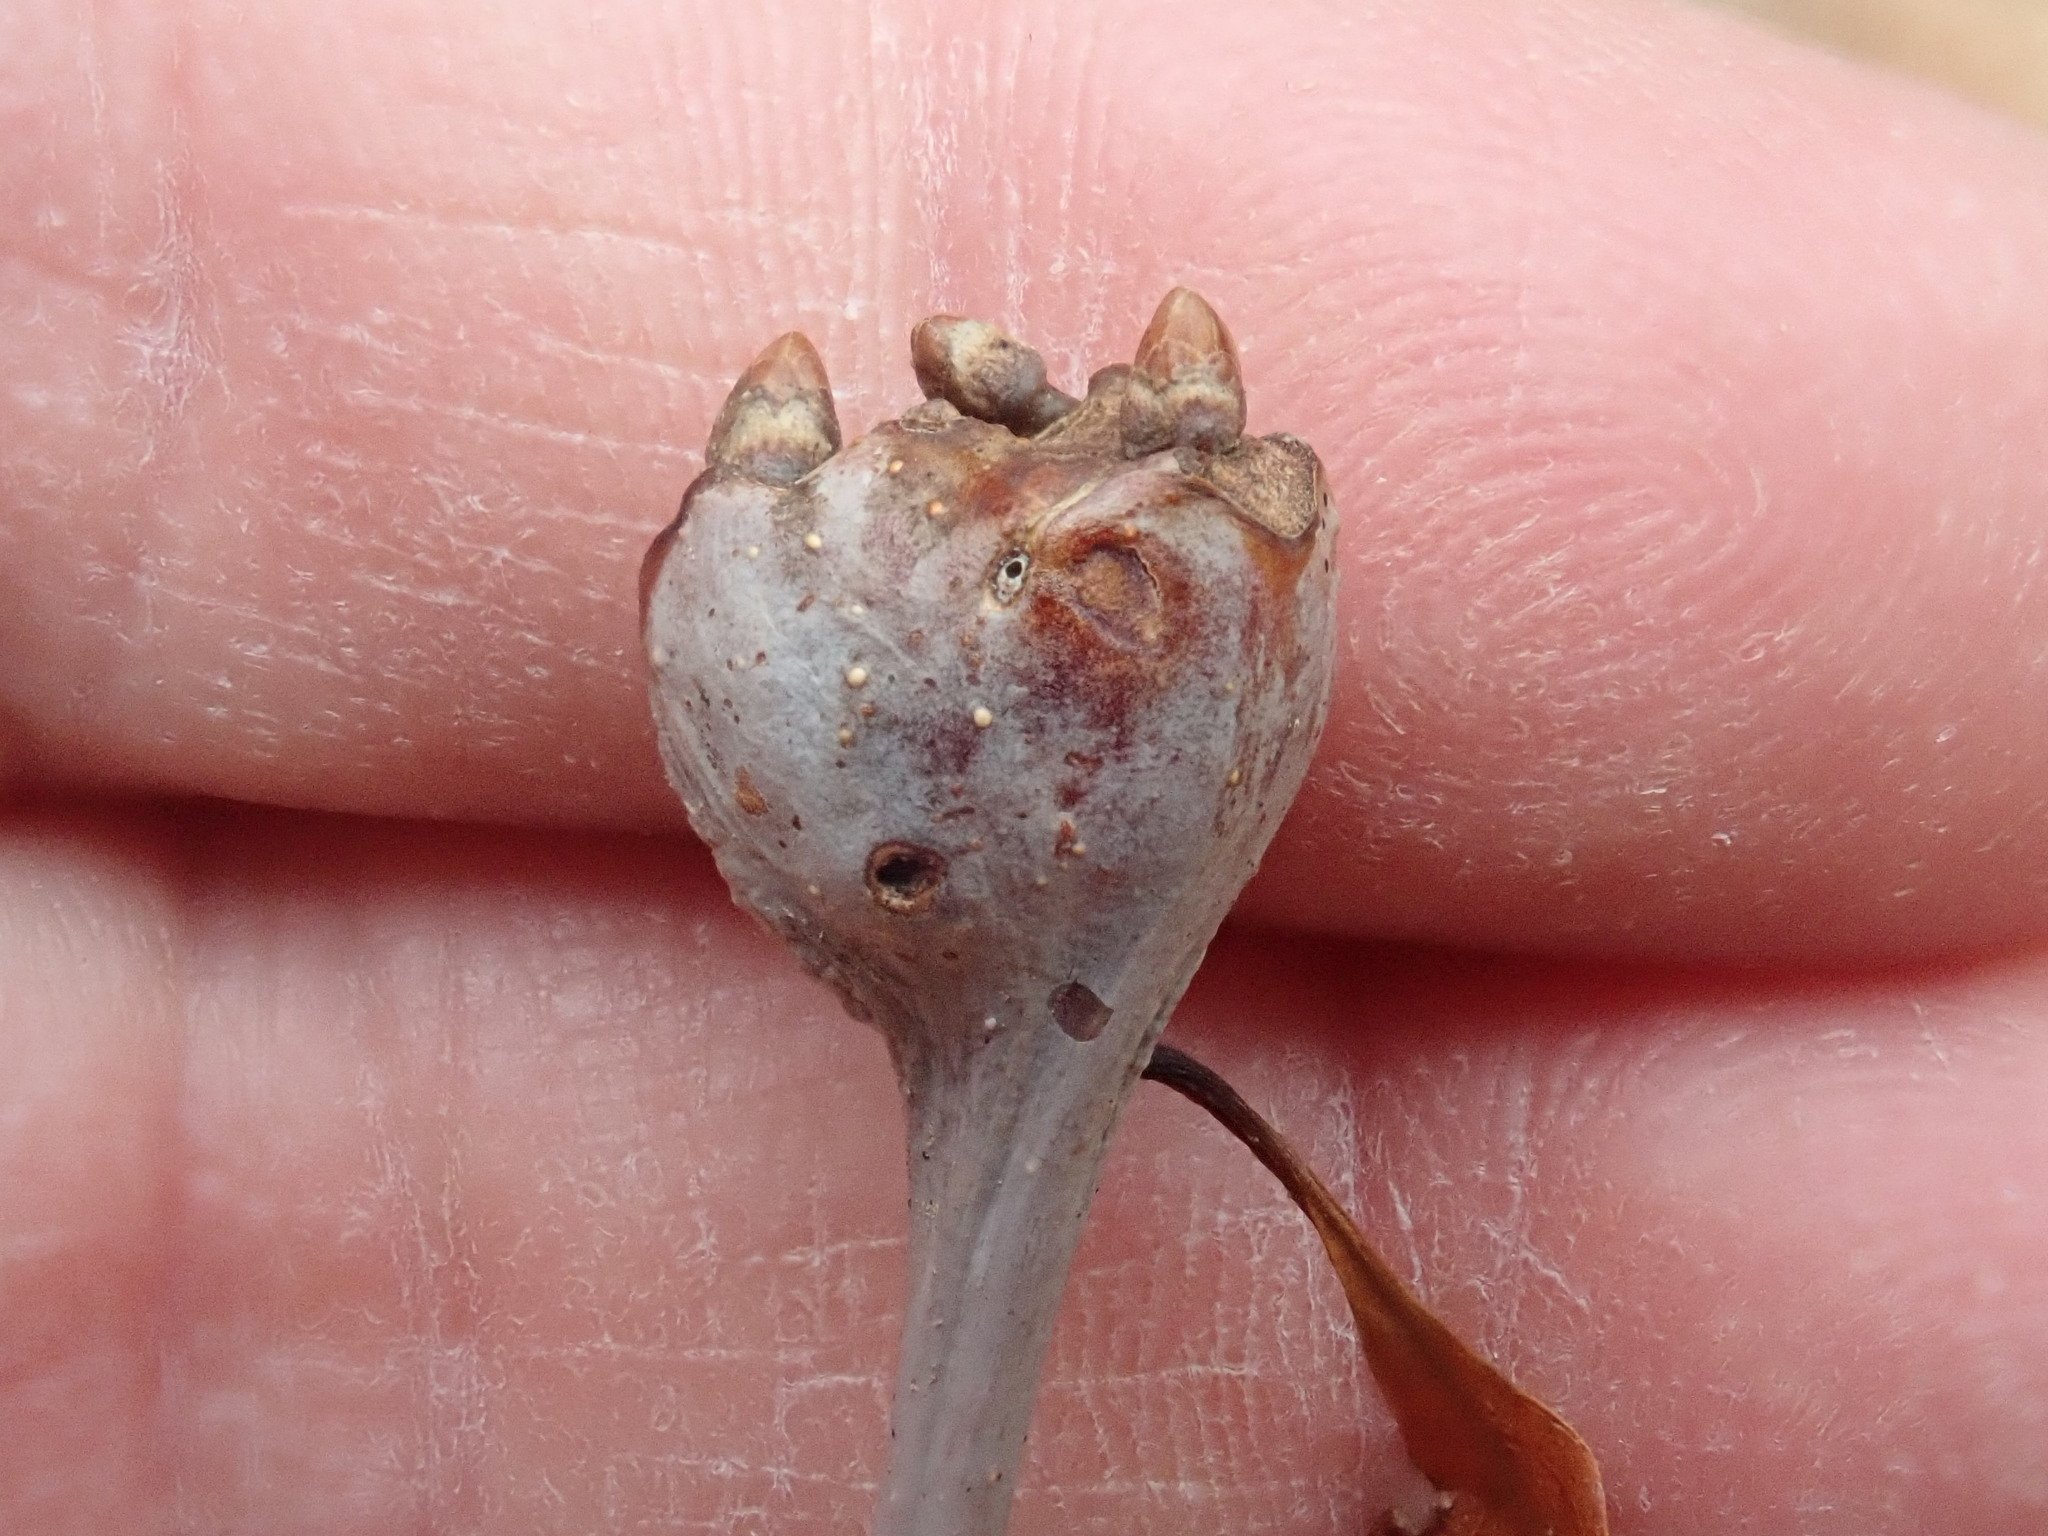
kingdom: Animalia
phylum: Arthropoda
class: Insecta
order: Hymenoptera
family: Cynipidae
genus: Callirhytis
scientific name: Callirhytis clavula
